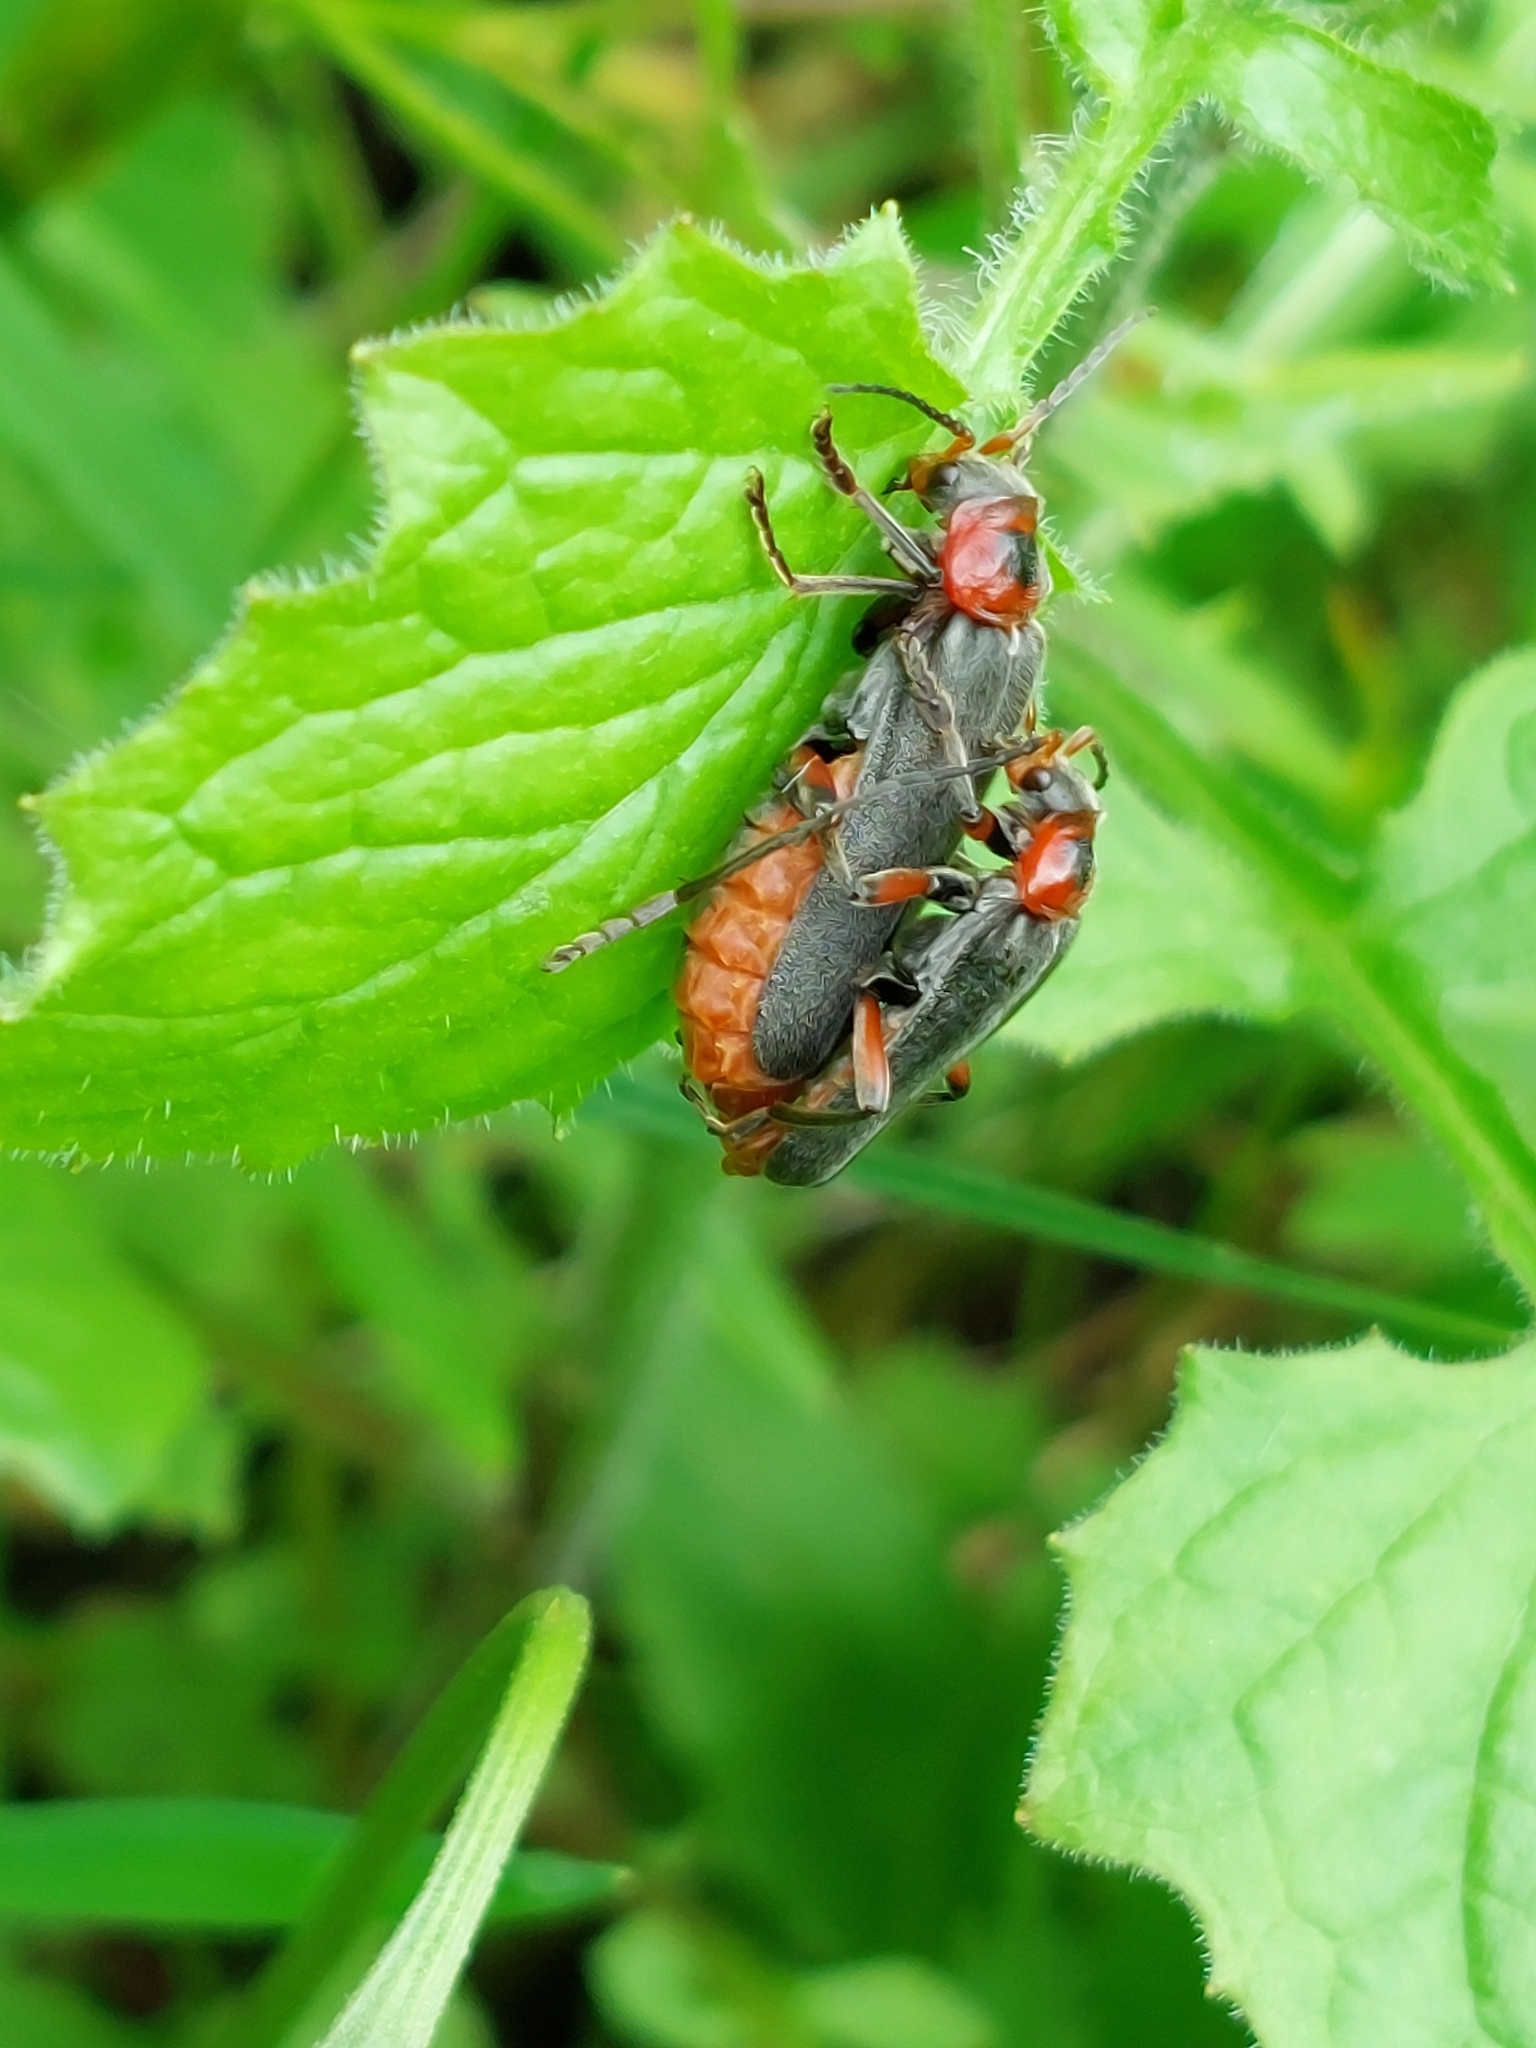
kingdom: Animalia
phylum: Arthropoda
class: Insecta
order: Coleoptera
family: Cantharidae
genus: Cantharis
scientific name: Cantharis rustica
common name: Soldier beetle
